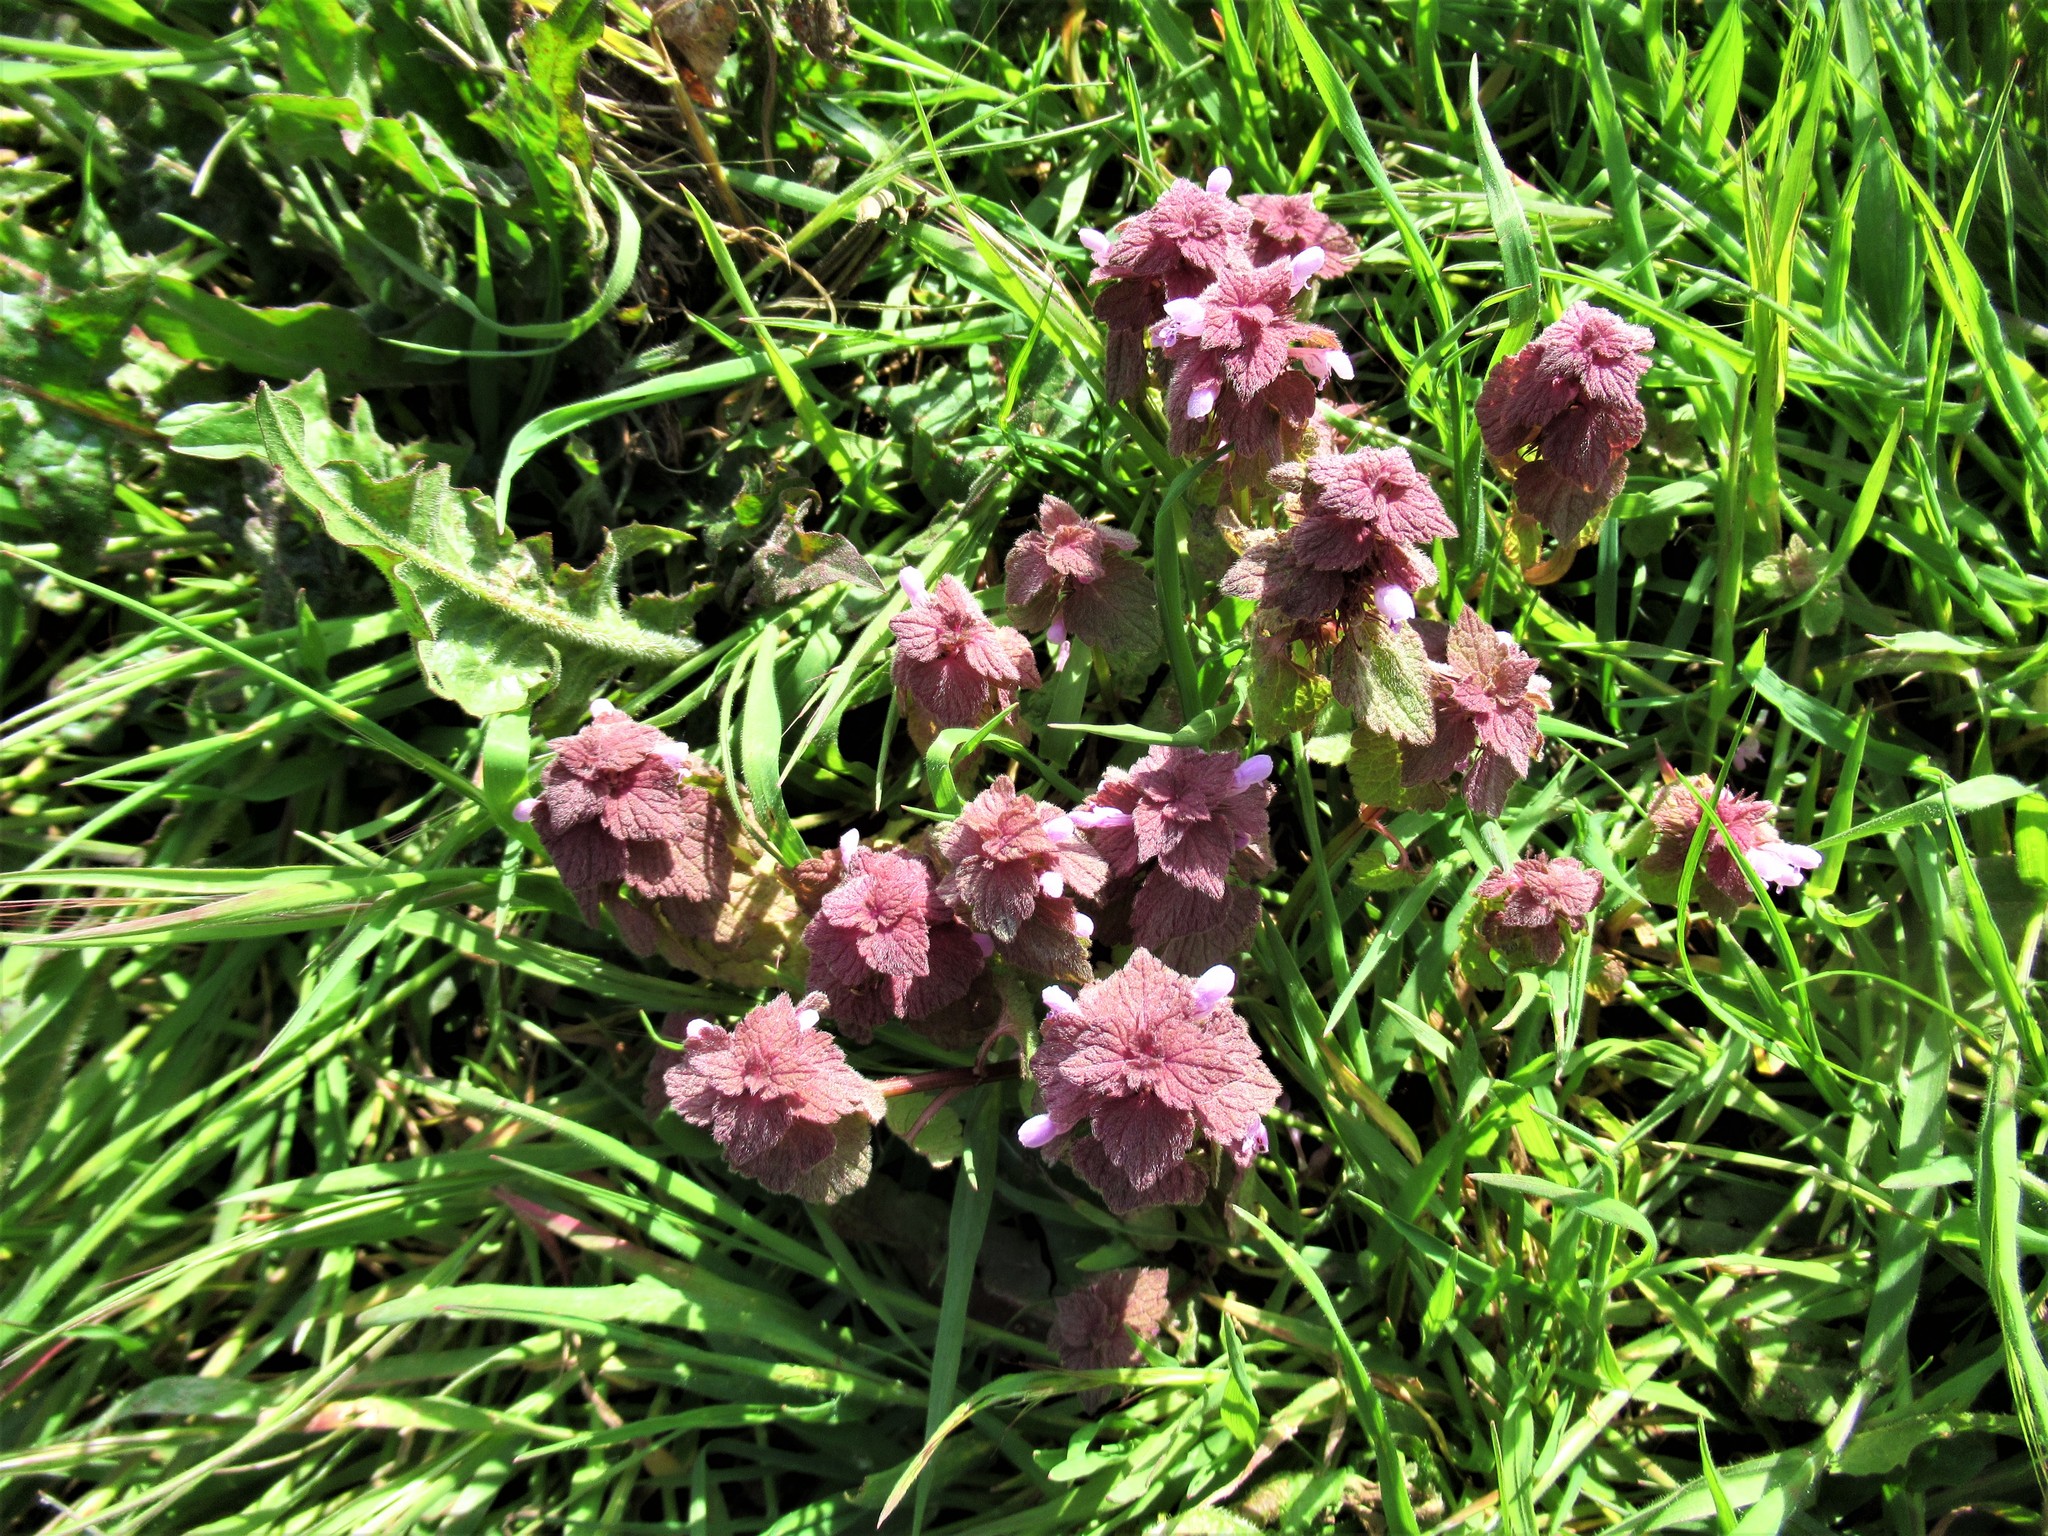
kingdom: Plantae
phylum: Tracheophyta
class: Magnoliopsida
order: Lamiales
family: Lamiaceae
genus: Lamium
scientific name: Lamium purpureum
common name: Red dead-nettle
